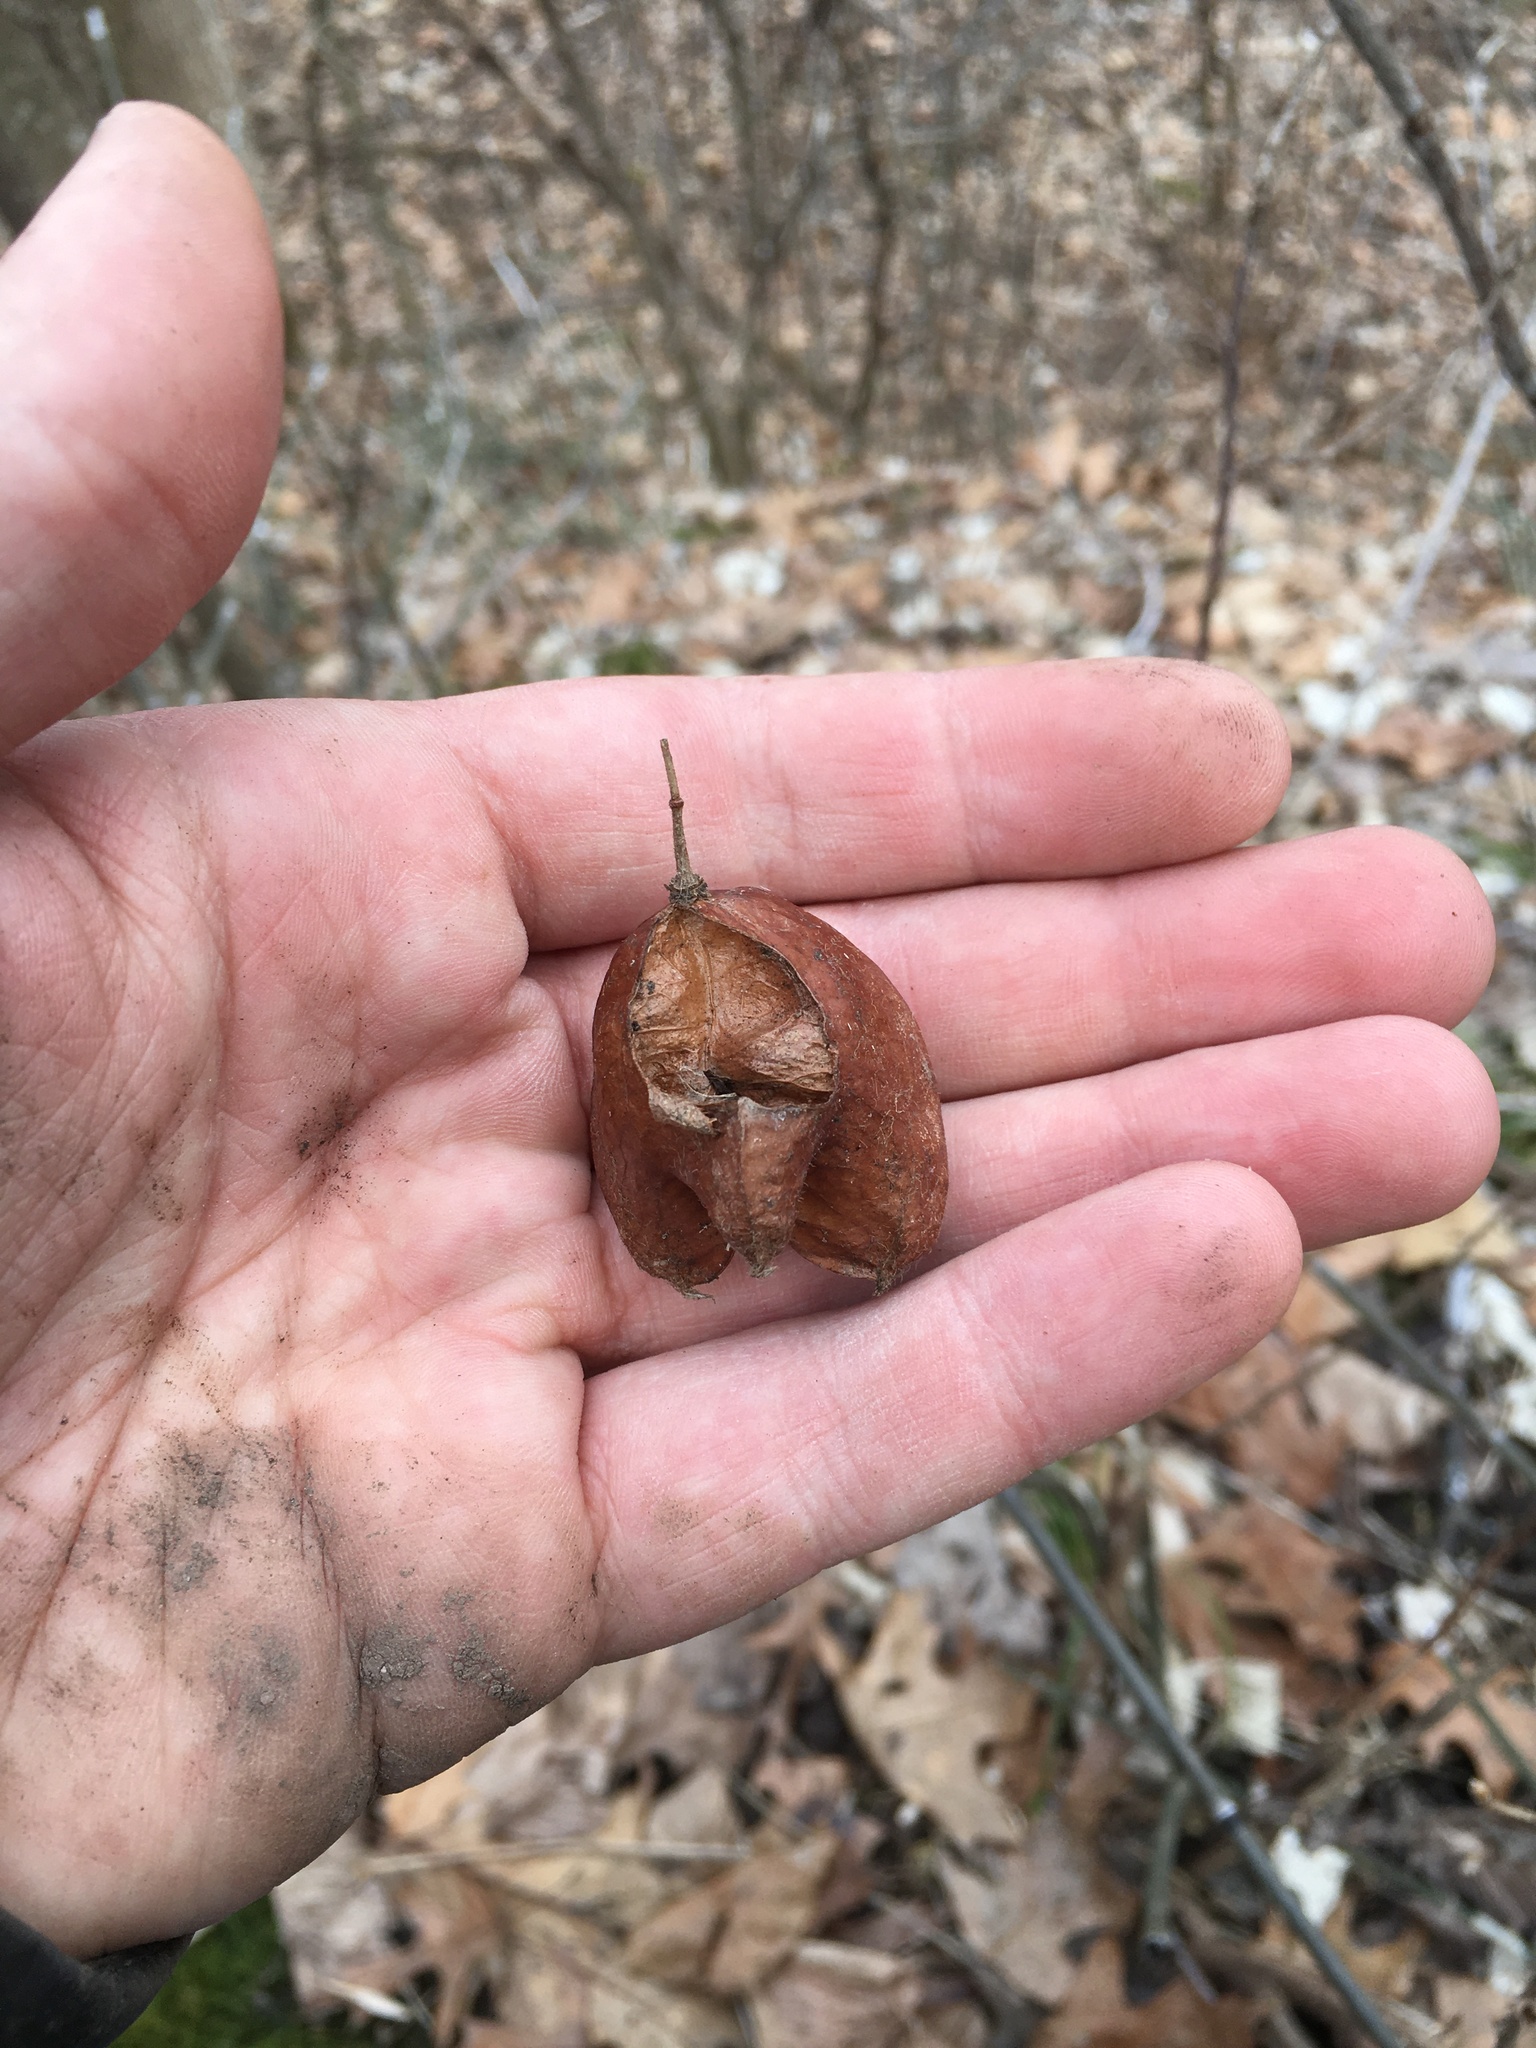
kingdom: Plantae
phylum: Tracheophyta
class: Magnoliopsida
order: Crossosomatales
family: Staphyleaceae
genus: Staphylea
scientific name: Staphylea trifolia
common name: American bladdernut
